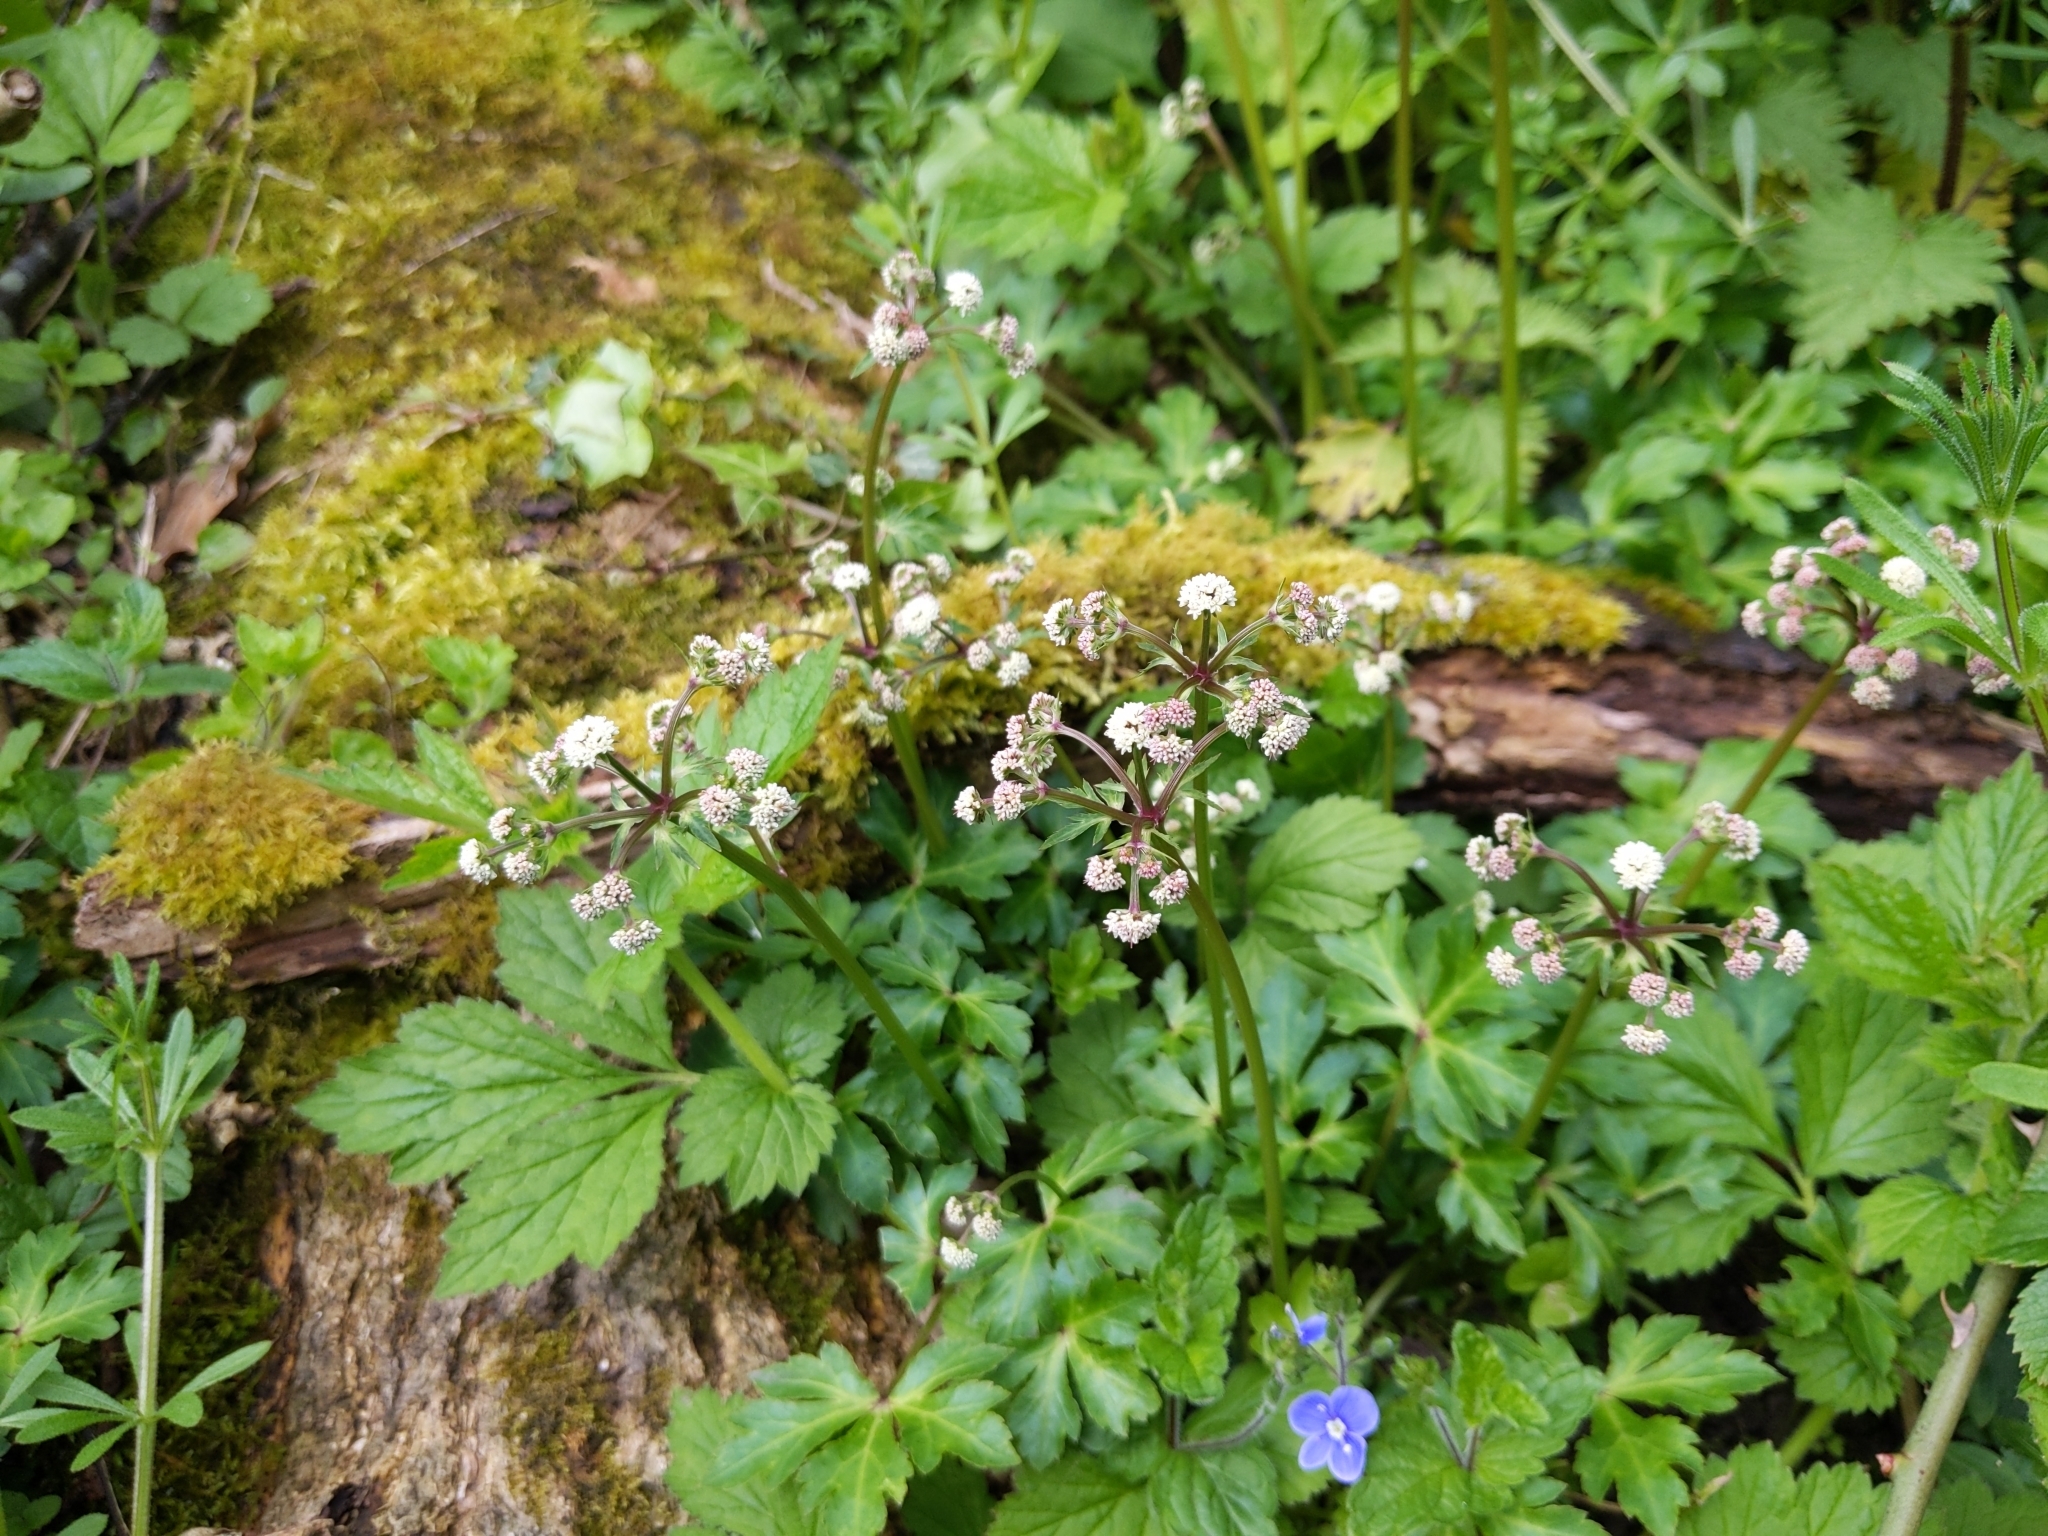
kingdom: Plantae
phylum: Tracheophyta
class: Magnoliopsida
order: Apiales
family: Apiaceae
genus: Sanicula
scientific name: Sanicula europaea
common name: Sanicle
